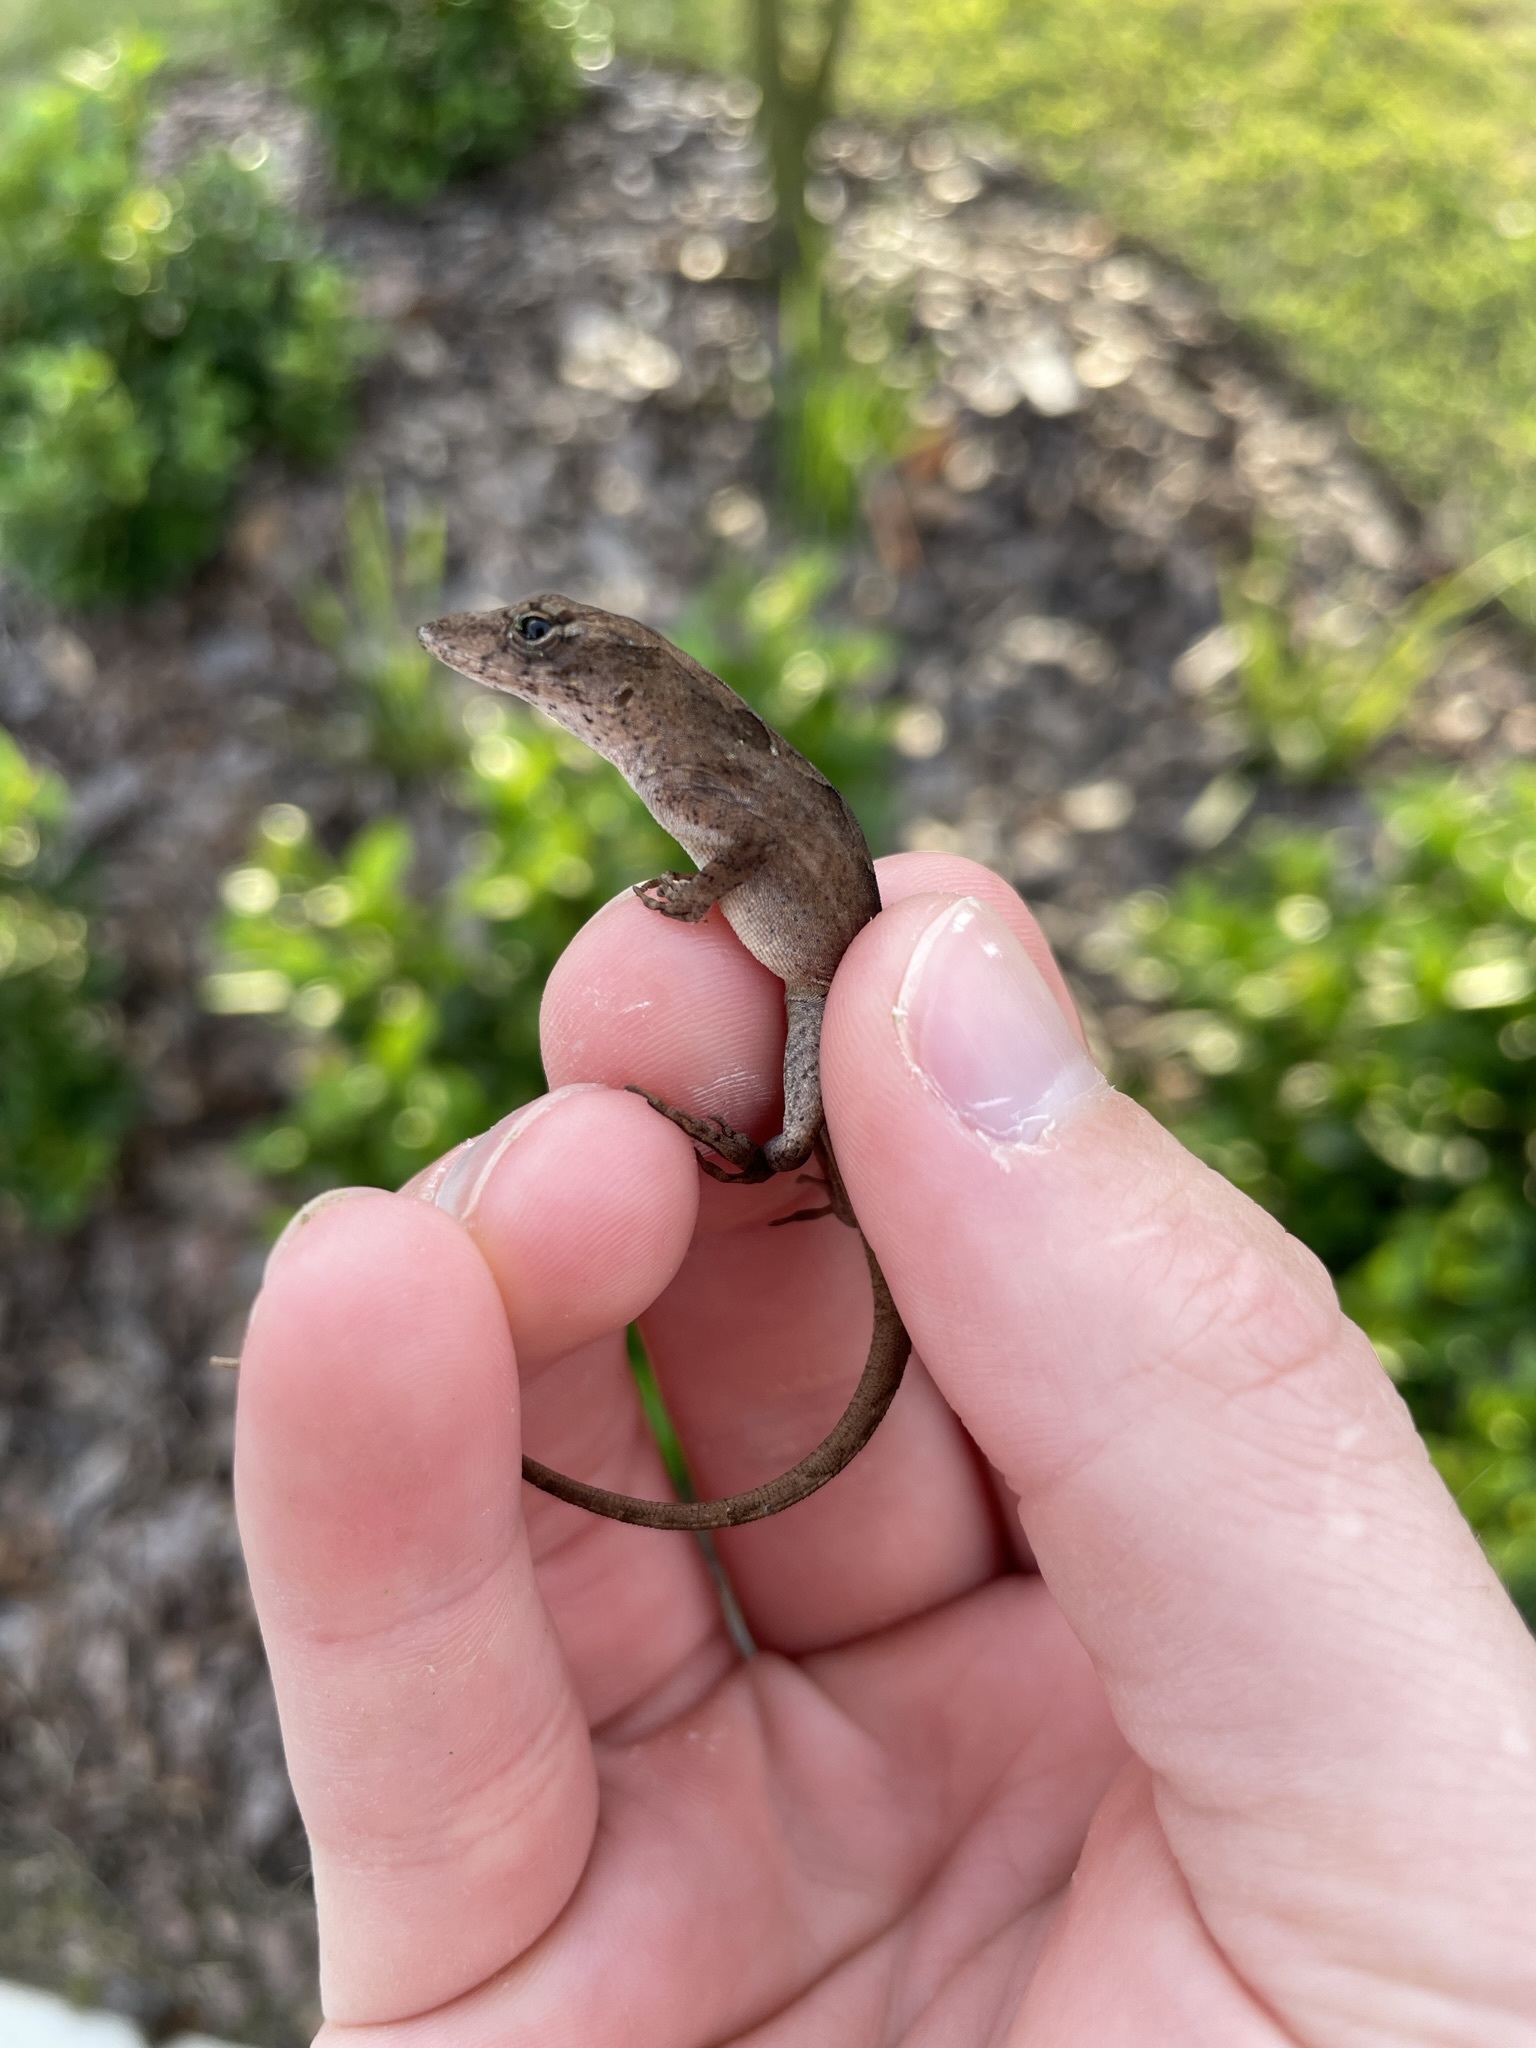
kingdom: Animalia
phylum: Chordata
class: Squamata
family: Dactyloidae
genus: Anolis
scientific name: Anolis sagrei
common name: Brown anole
